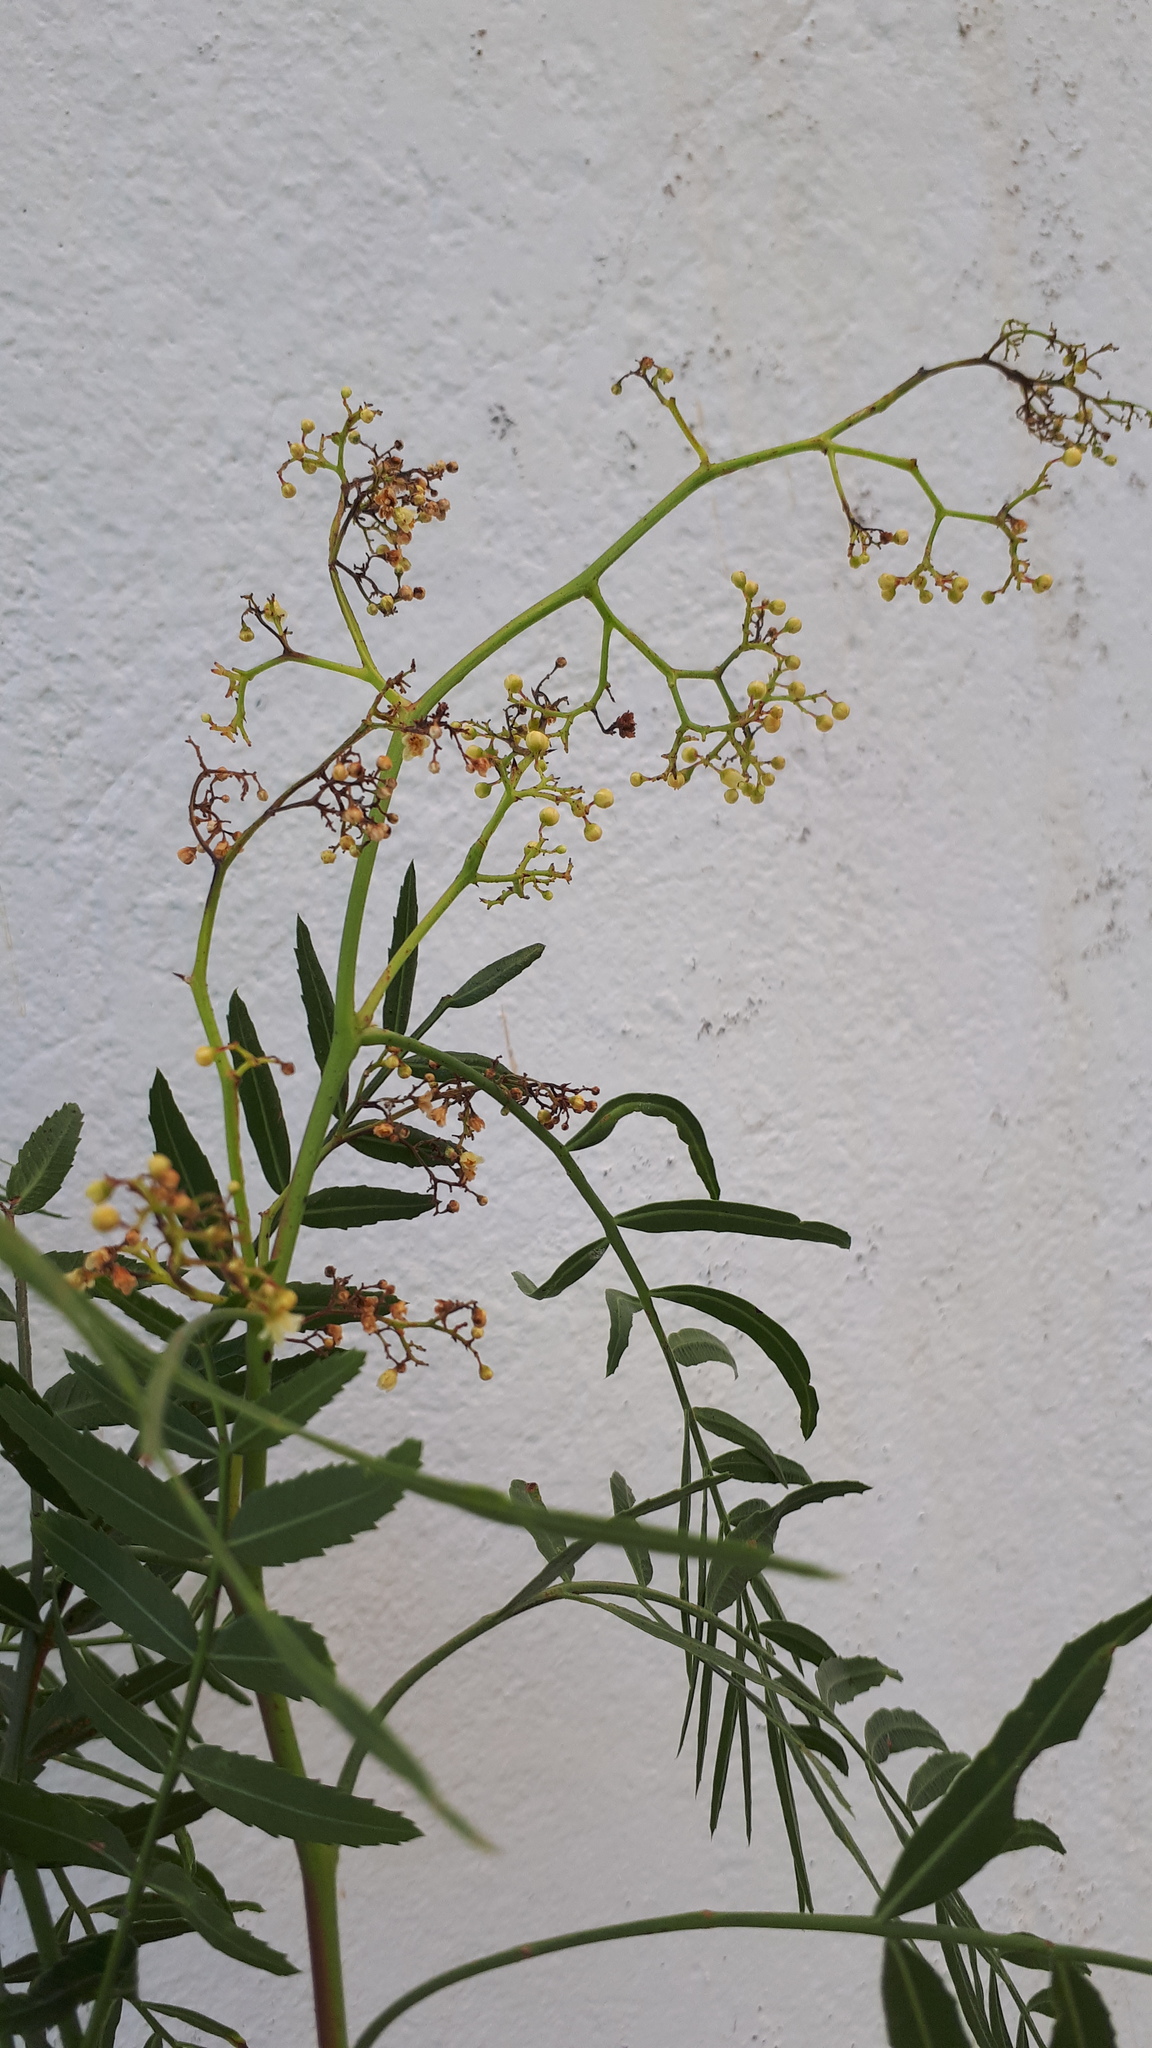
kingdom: Plantae
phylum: Tracheophyta
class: Magnoliopsida
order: Sapindales
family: Anacardiaceae
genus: Schinus
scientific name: Schinus molle
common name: Peruvian peppertree
